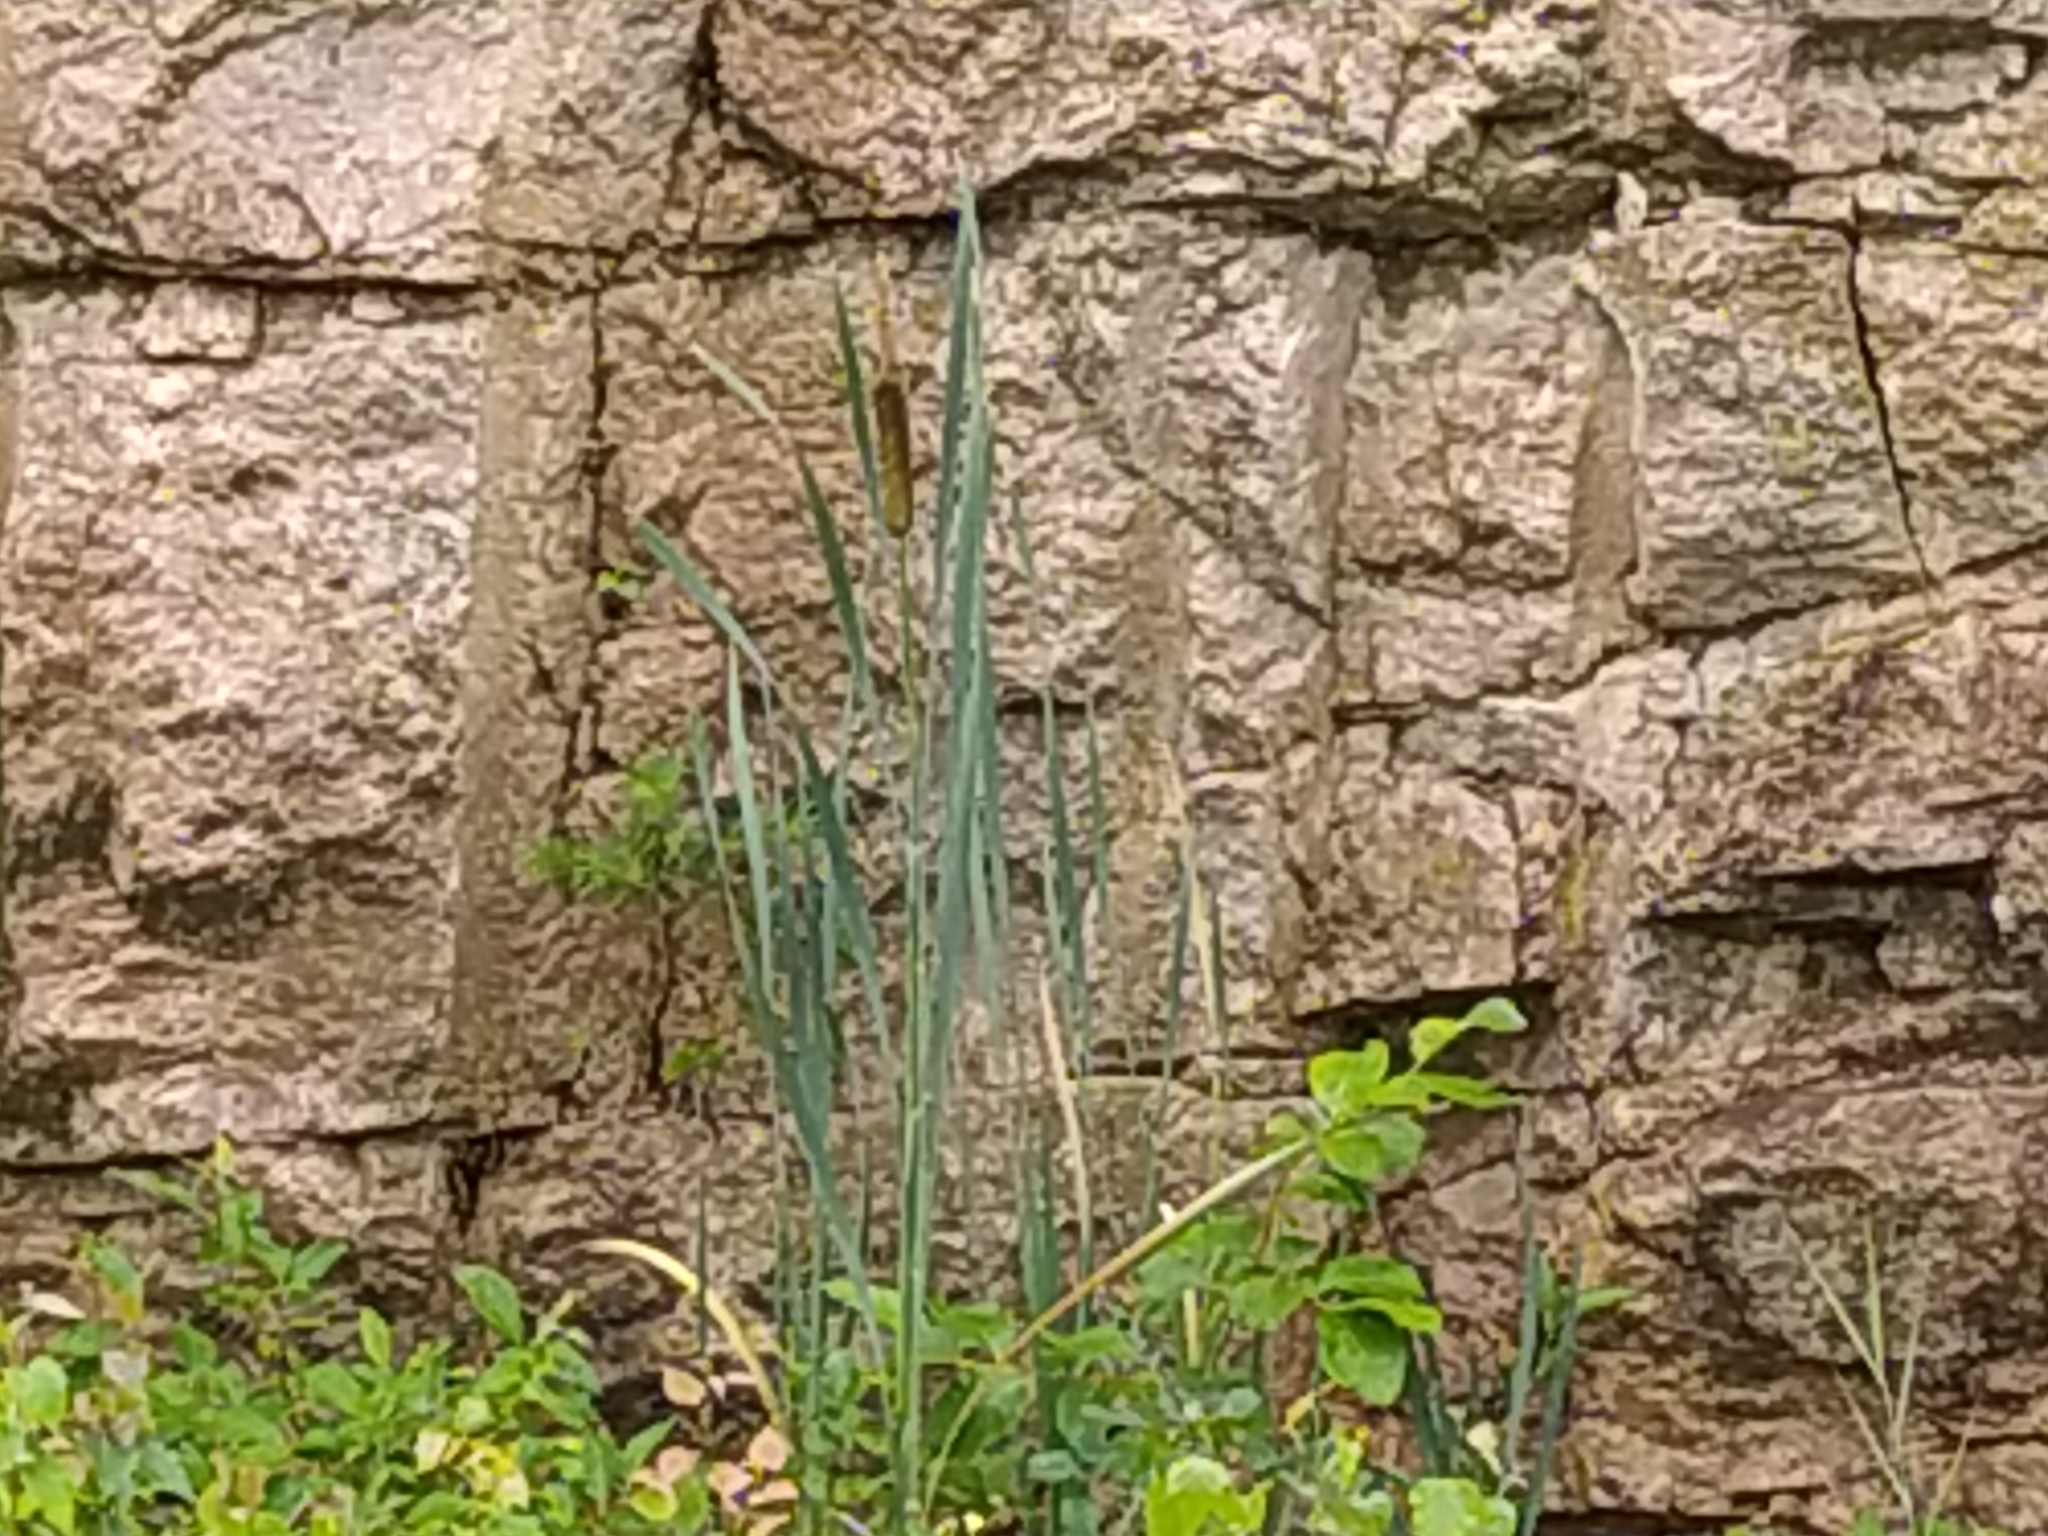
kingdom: Plantae
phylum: Tracheophyta
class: Liliopsida
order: Poales
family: Typhaceae
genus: Typha
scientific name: Typha latifolia
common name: Broadleaf cattail
